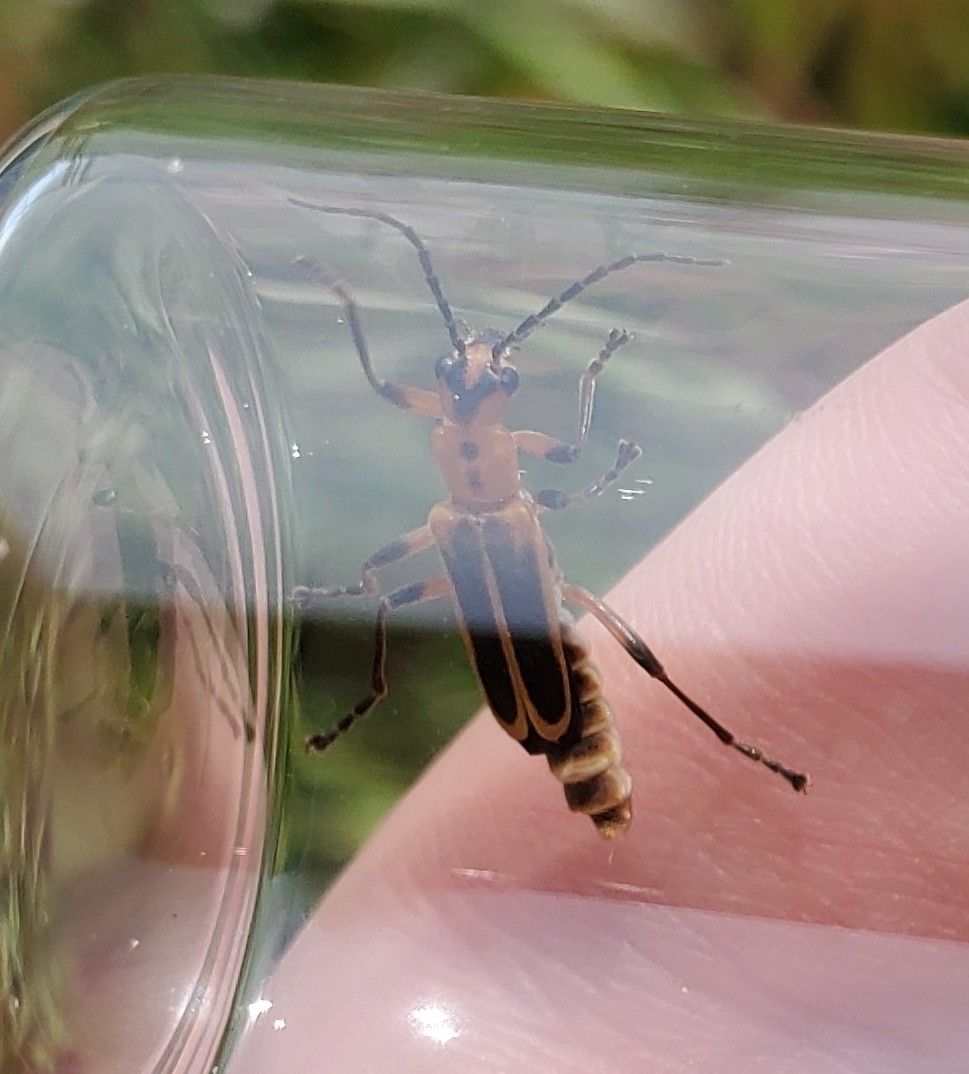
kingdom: Animalia
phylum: Arthropoda
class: Insecta
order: Coleoptera
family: Cantharidae
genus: Chauliognathus
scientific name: Chauliognathus marginatus
